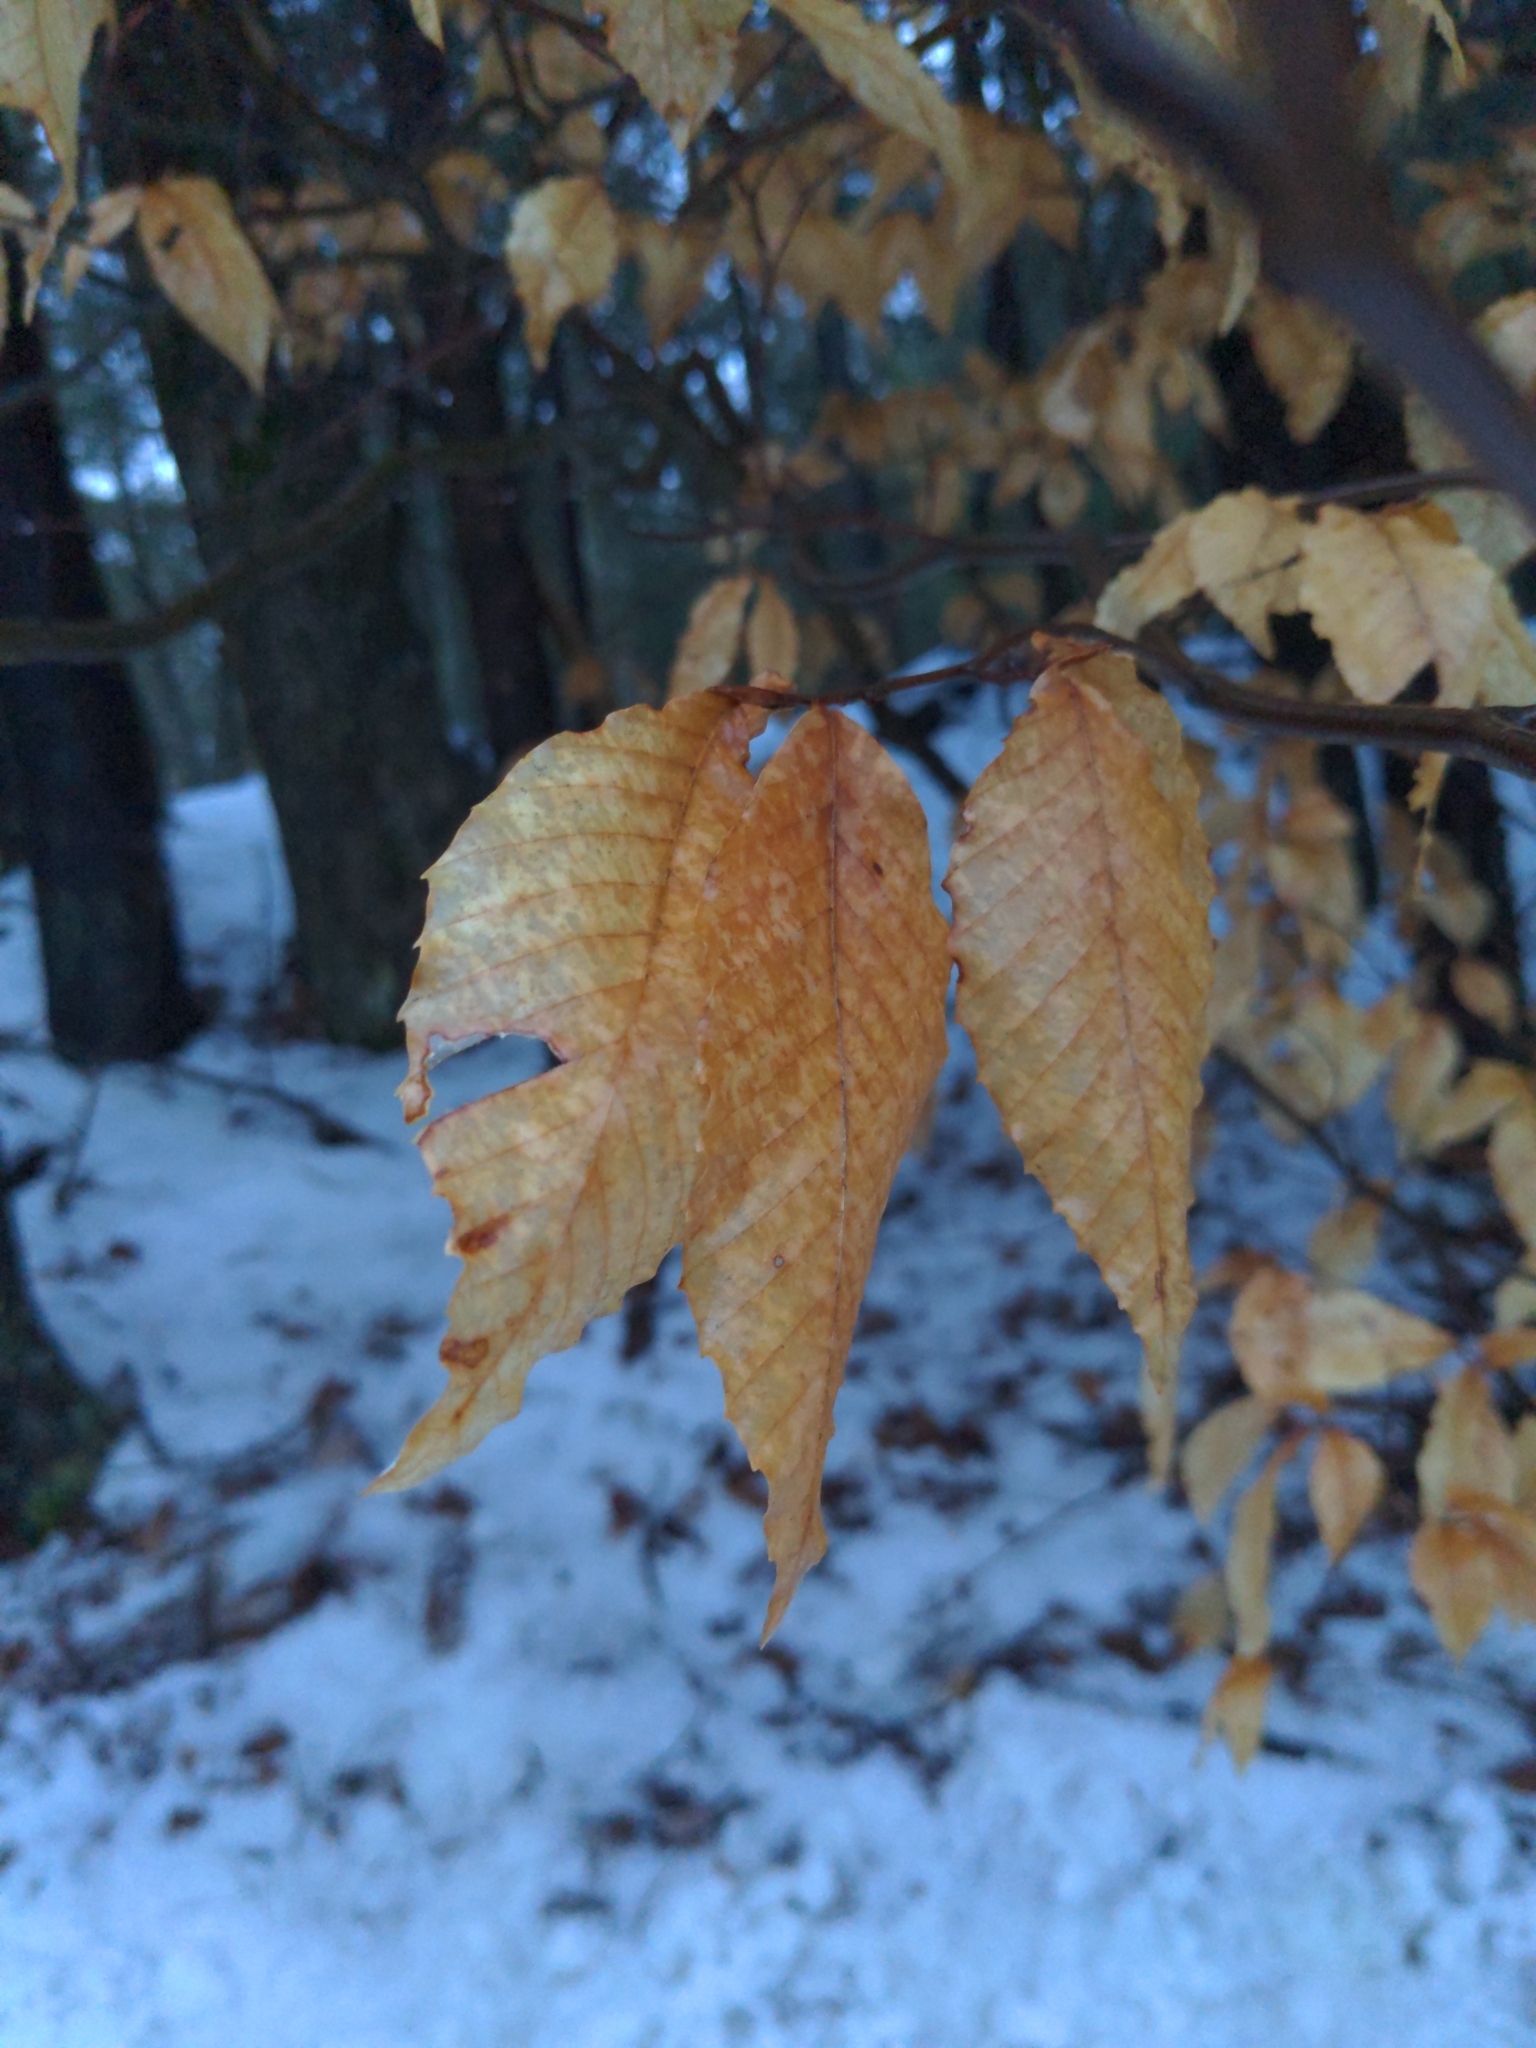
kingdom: Plantae
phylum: Tracheophyta
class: Magnoliopsida
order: Fagales
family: Fagaceae
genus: Fagus
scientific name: Fagus grandifolia
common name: American beech
